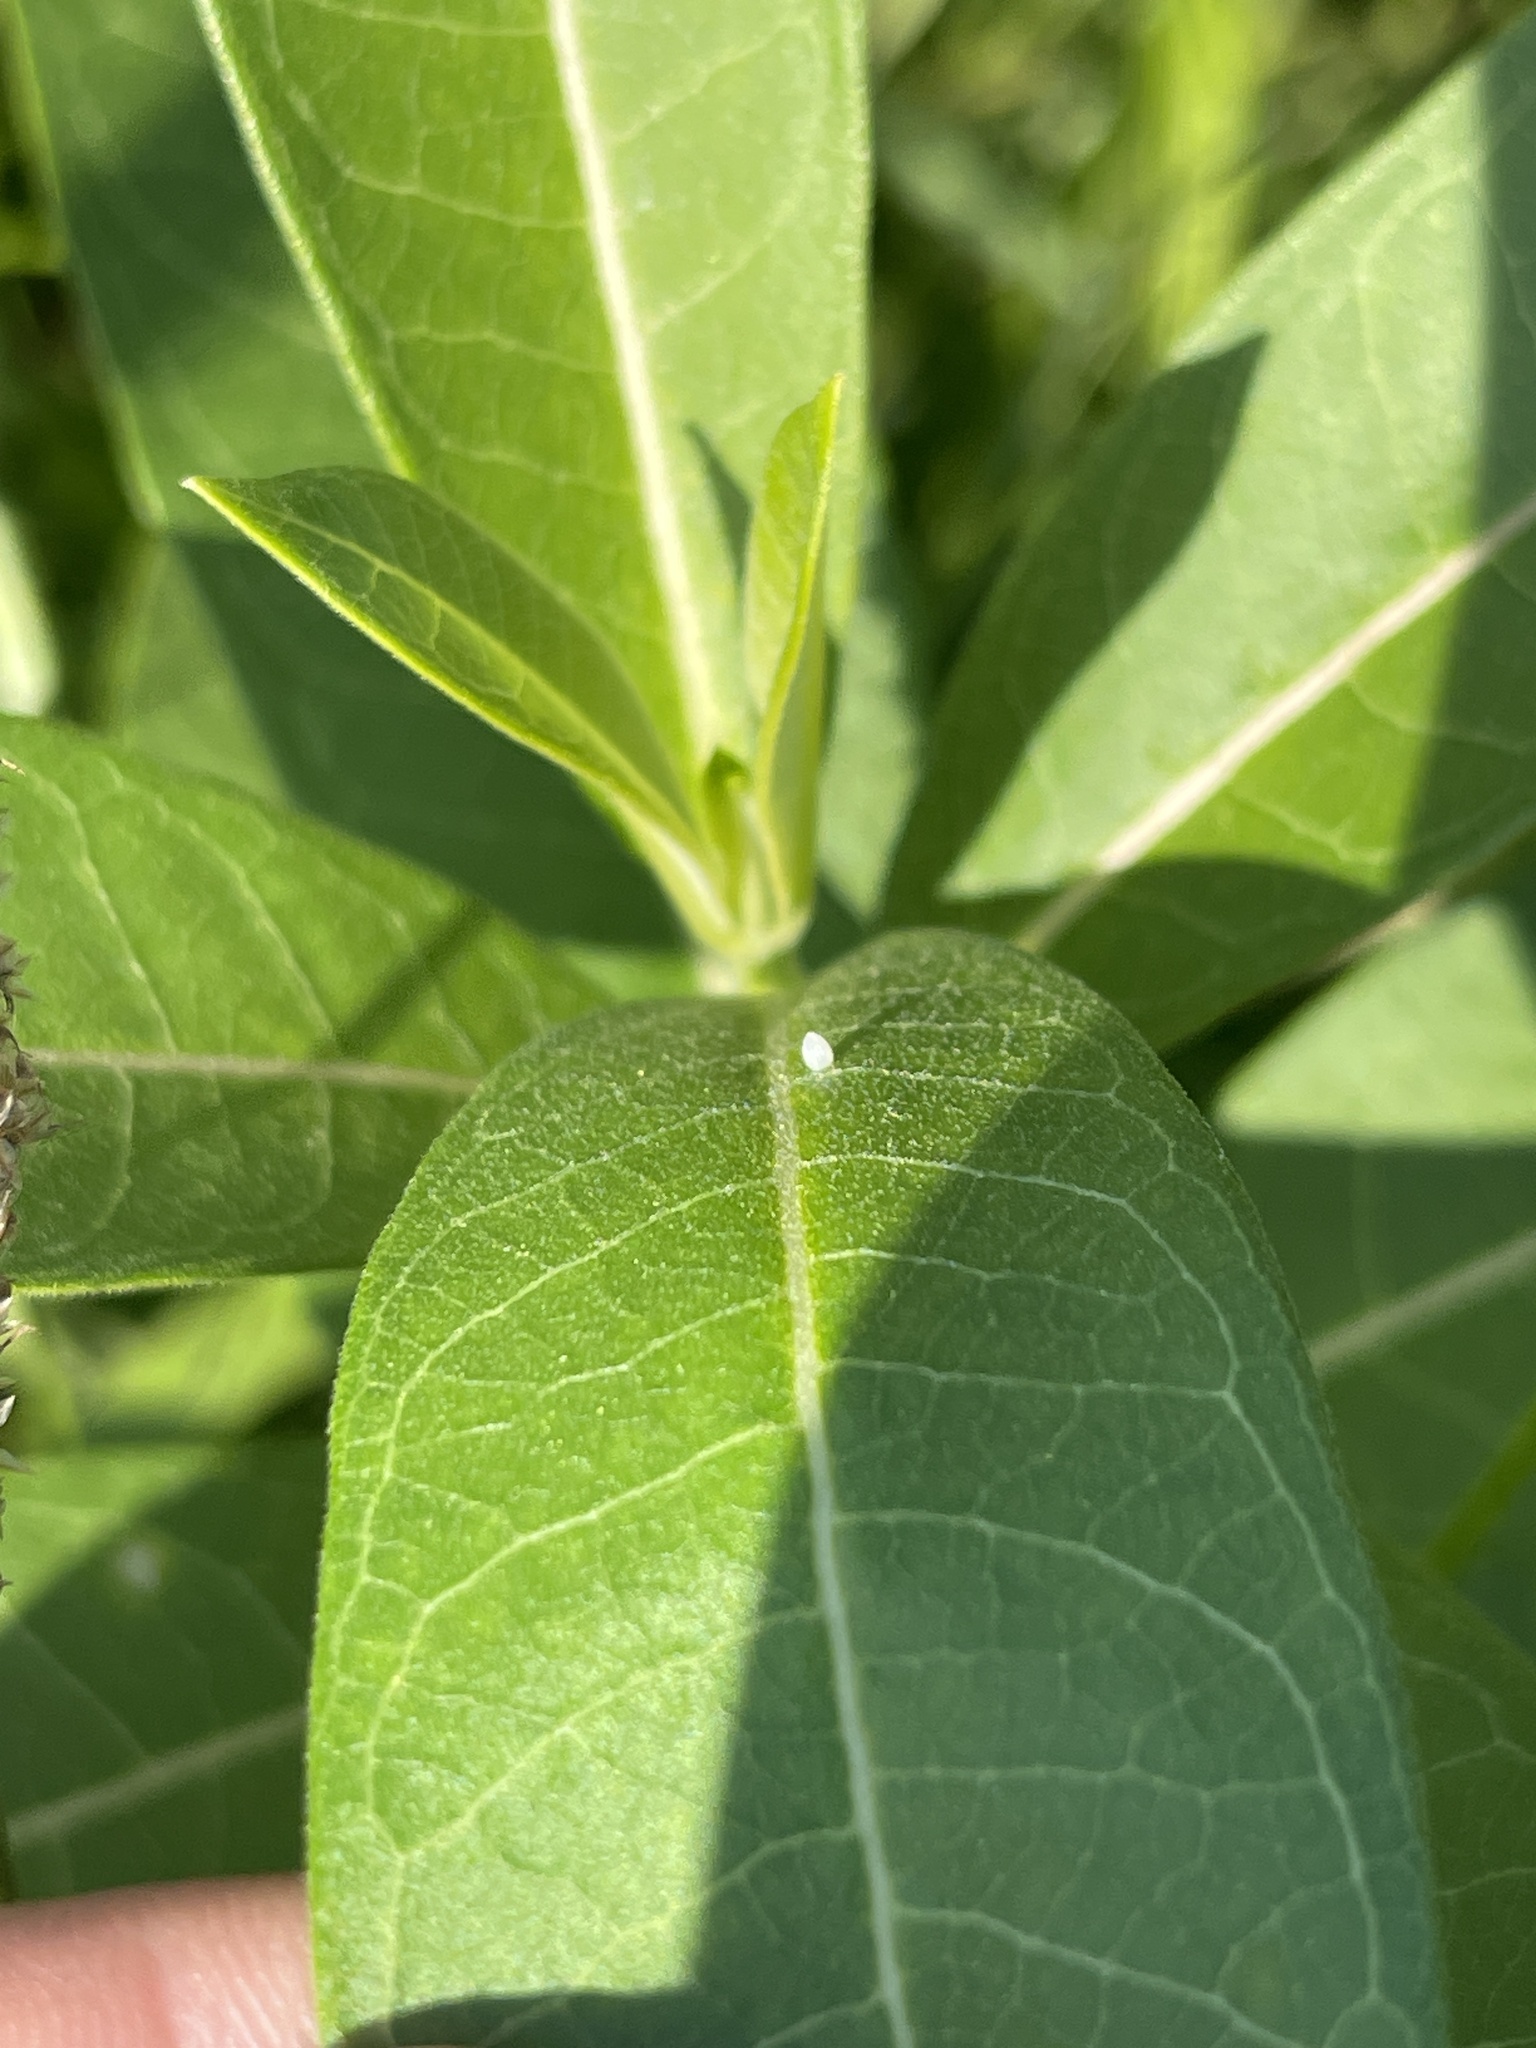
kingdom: Animalia
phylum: Arthropoda
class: Insecta
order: Lepidoptera
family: Nymphalidae
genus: Danaus
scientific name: Danaus plexippus
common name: Monarch
